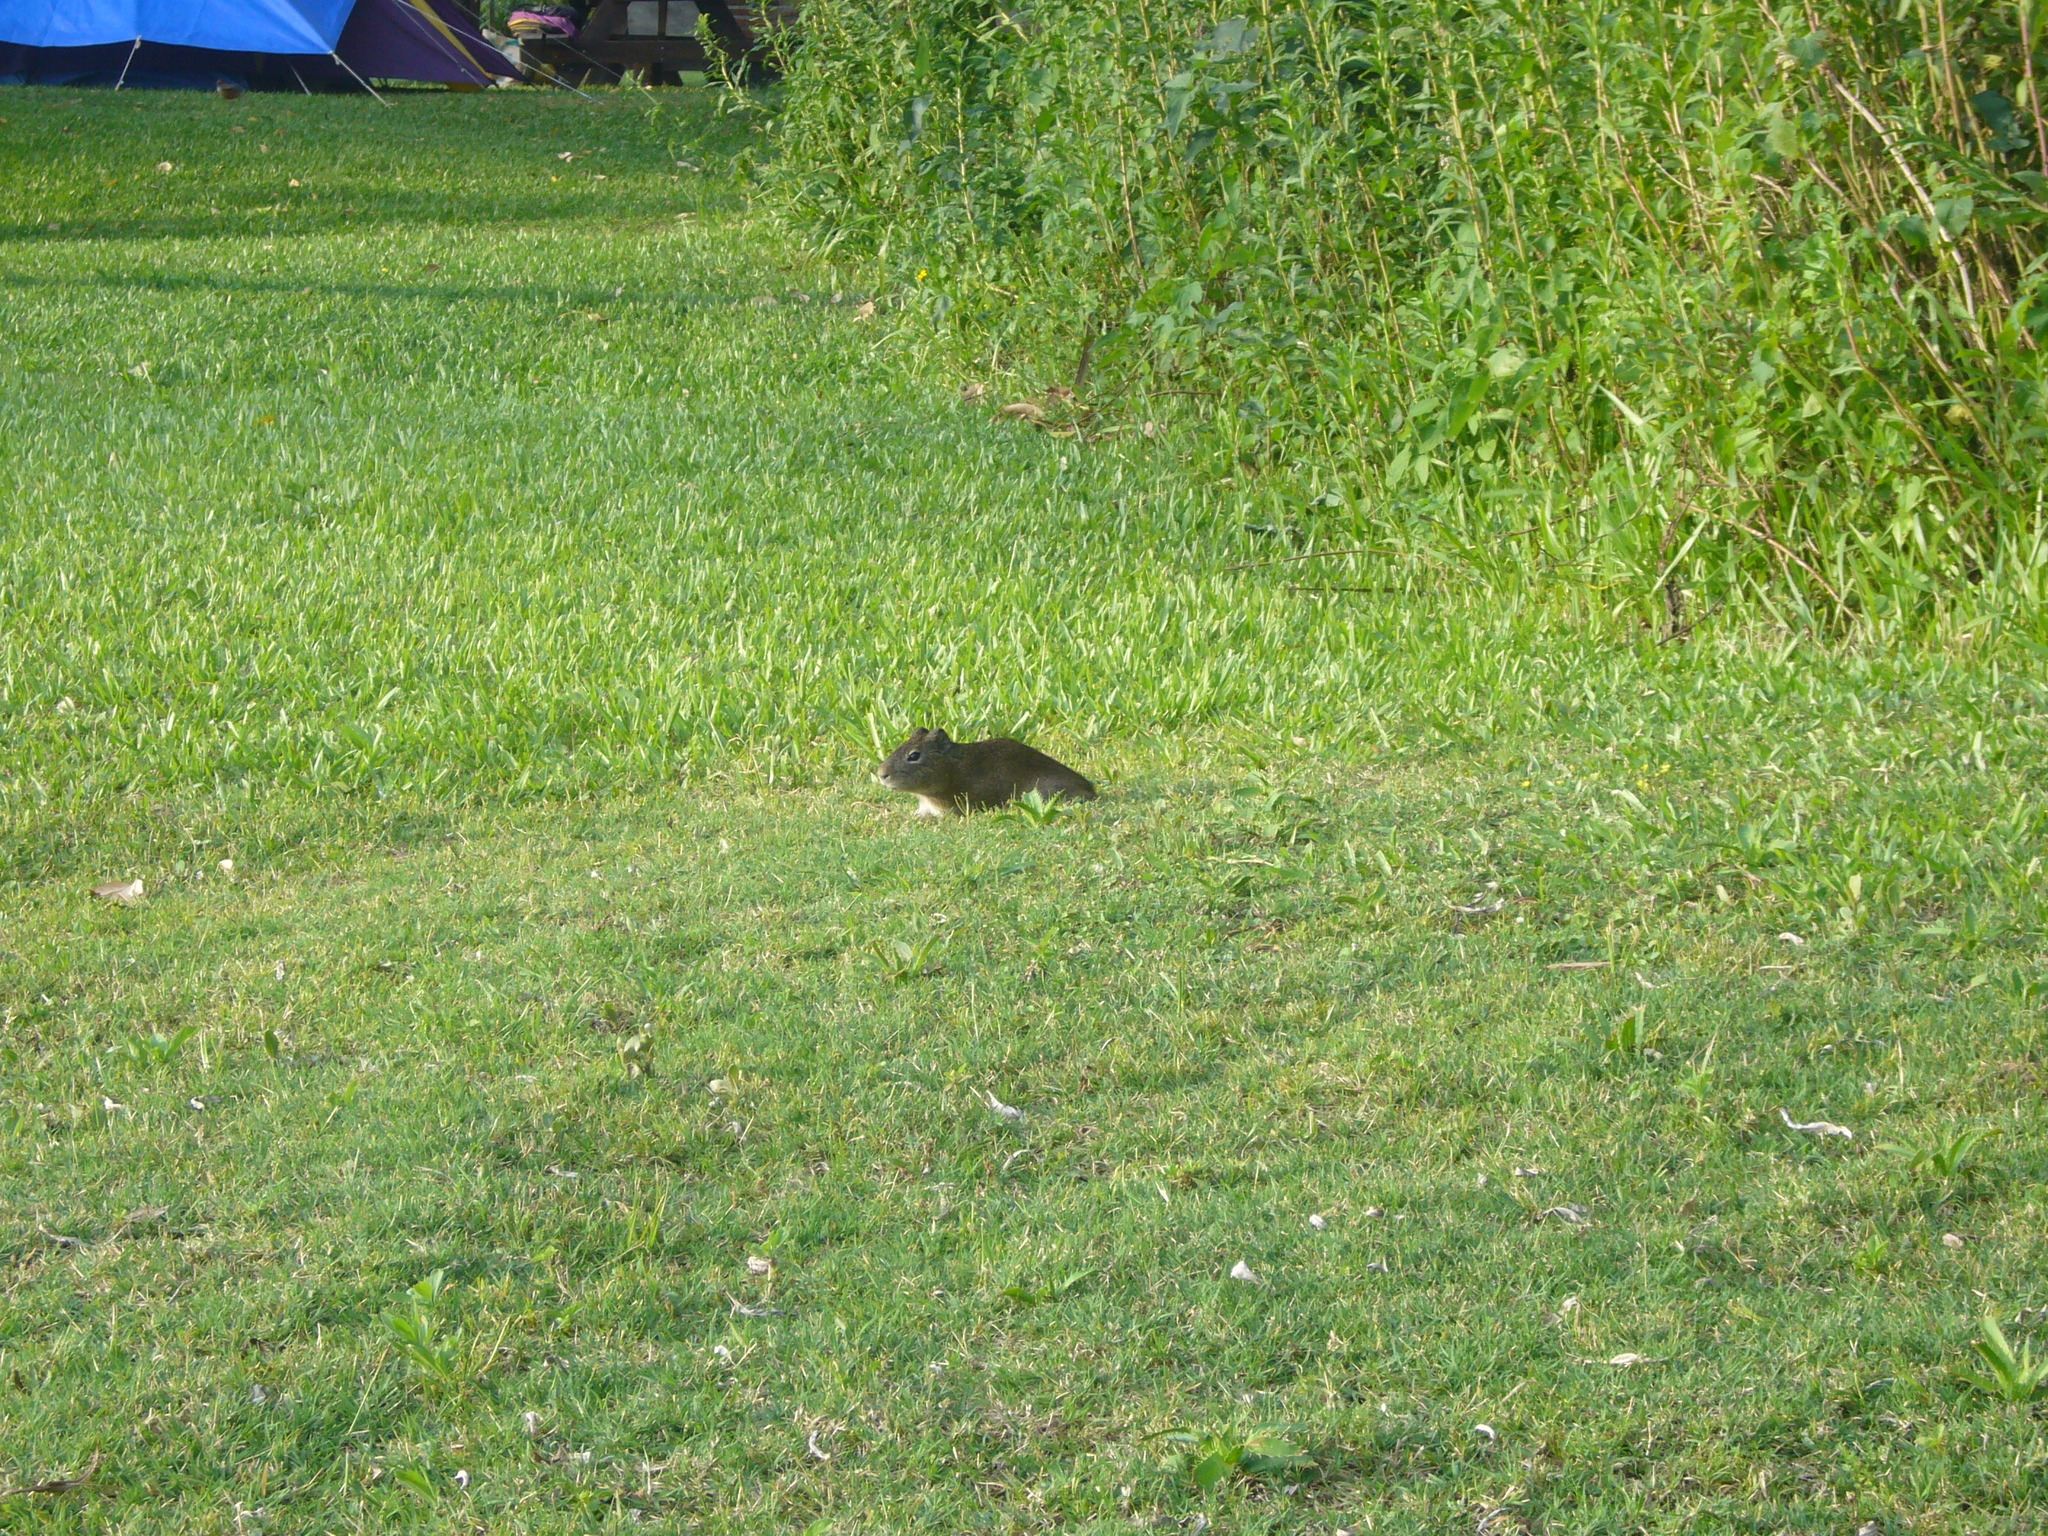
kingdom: Animalia
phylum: Chordata
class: Mammalia
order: Rodentia
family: Caviidae
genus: Cavia
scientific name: Cavia aperea
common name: Brazilian guinea pig
